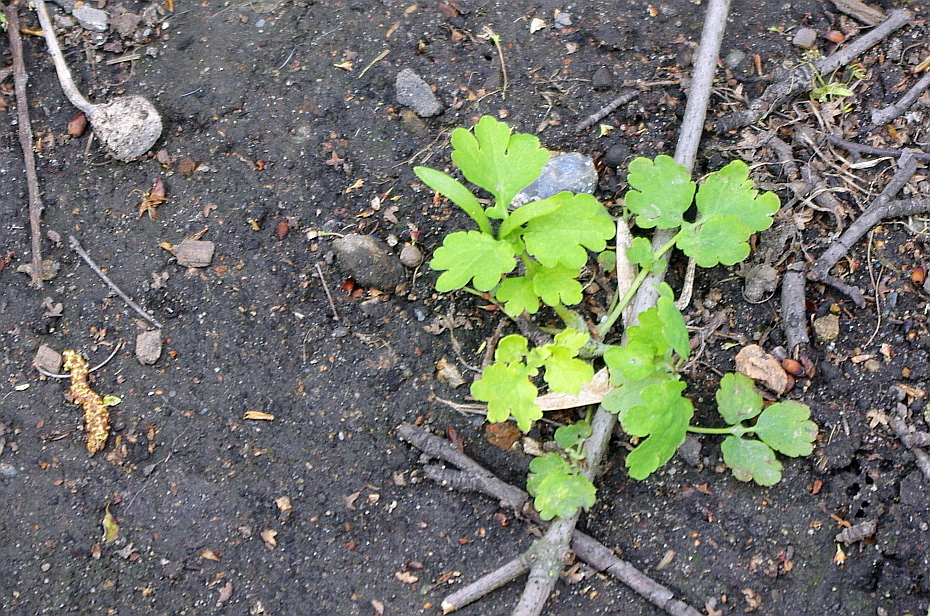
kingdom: Plantae
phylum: Tracheophyta
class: Magnoliopsida
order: Ranunculales
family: Papaveraceae
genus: Chelidonium
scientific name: Chelidonium majus
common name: Greater celandine
